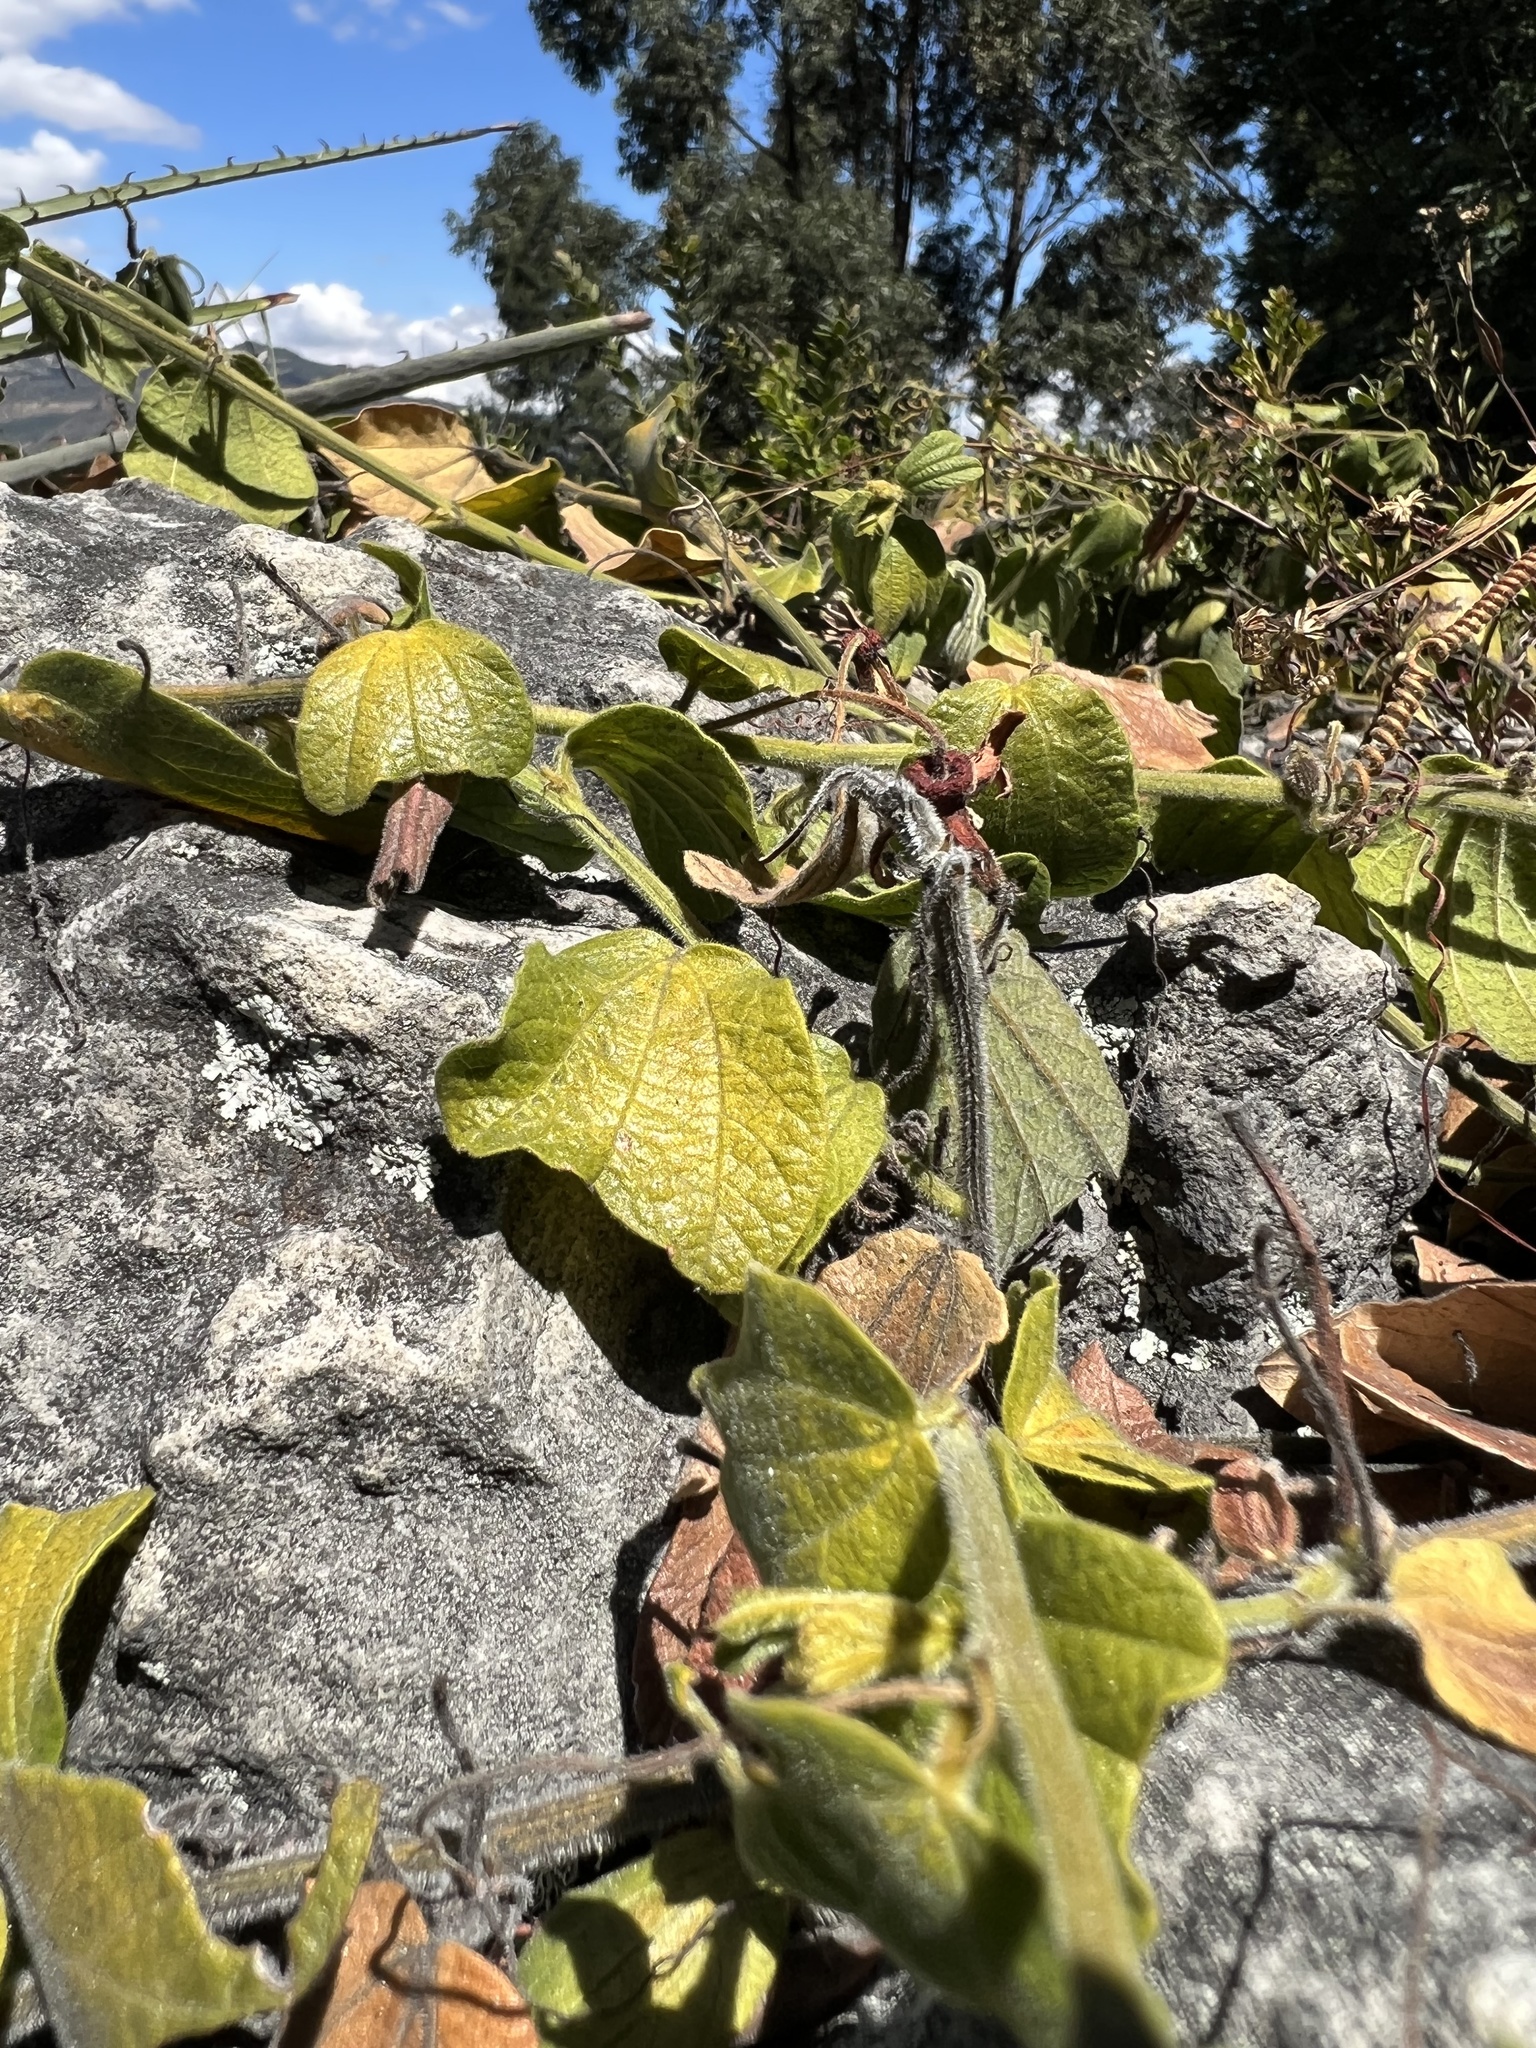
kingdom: Plantae
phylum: Tracheophyta
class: Magnoliopsida
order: Malpighiales
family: Passifloraceae
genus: Passiflora
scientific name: Passiflora bogotensis
